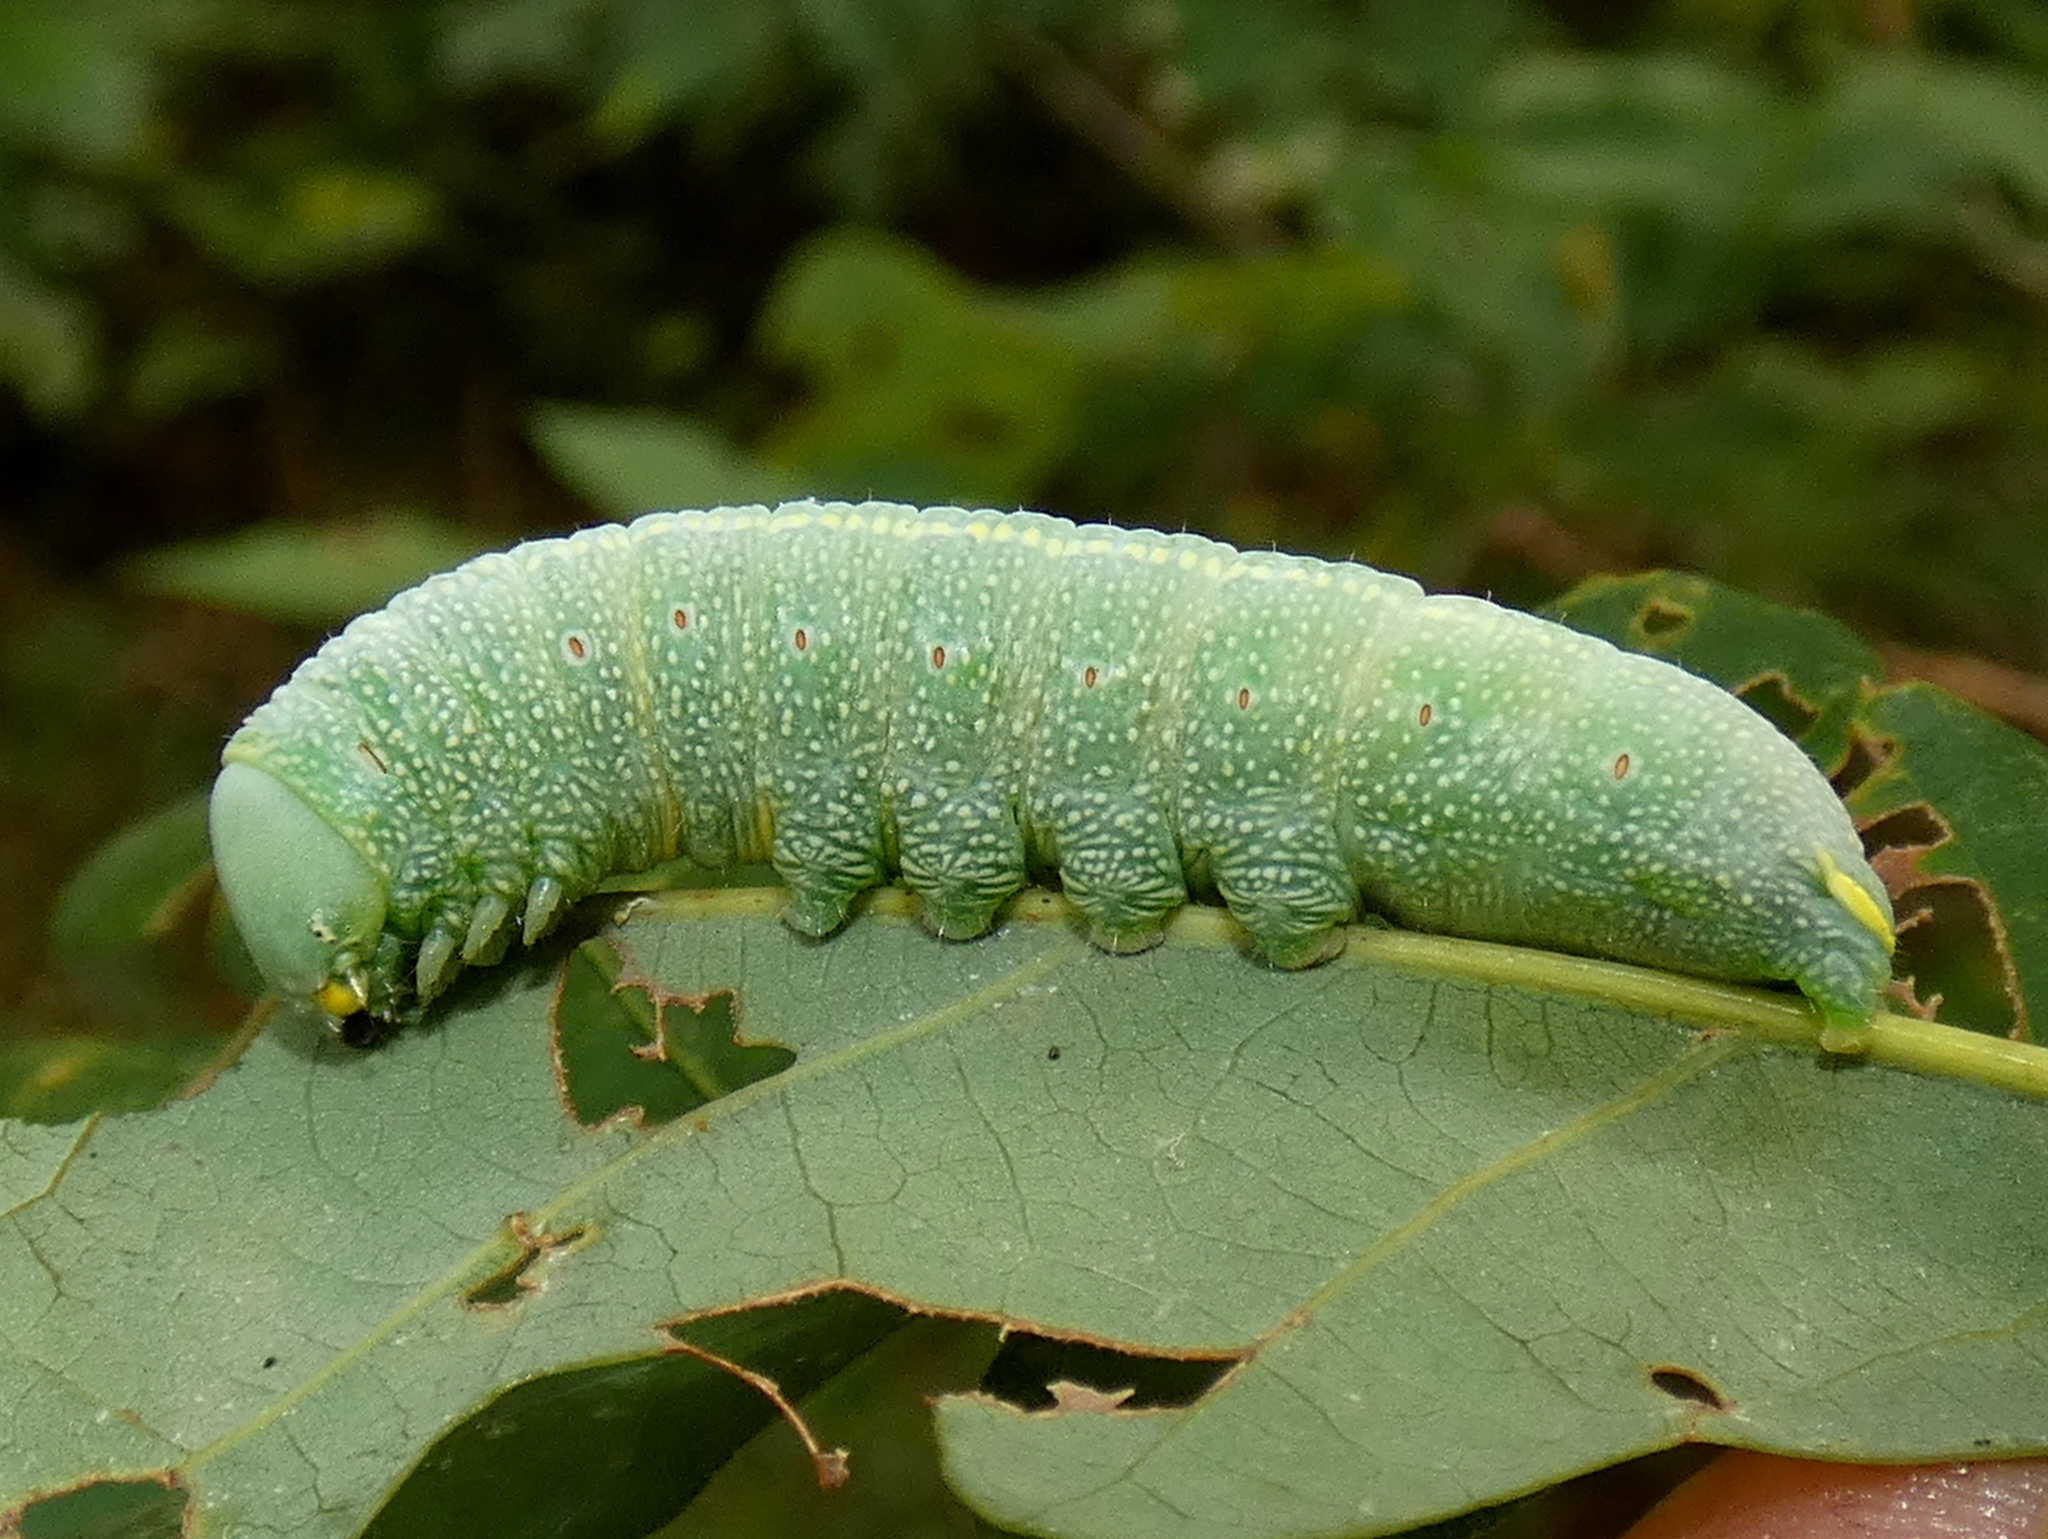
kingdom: Animalia
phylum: Arthropoda
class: Insecta
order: Lepidoptera
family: Notodontidae
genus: Nadata
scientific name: Nadata gibbosa
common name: White-dotted prominent
